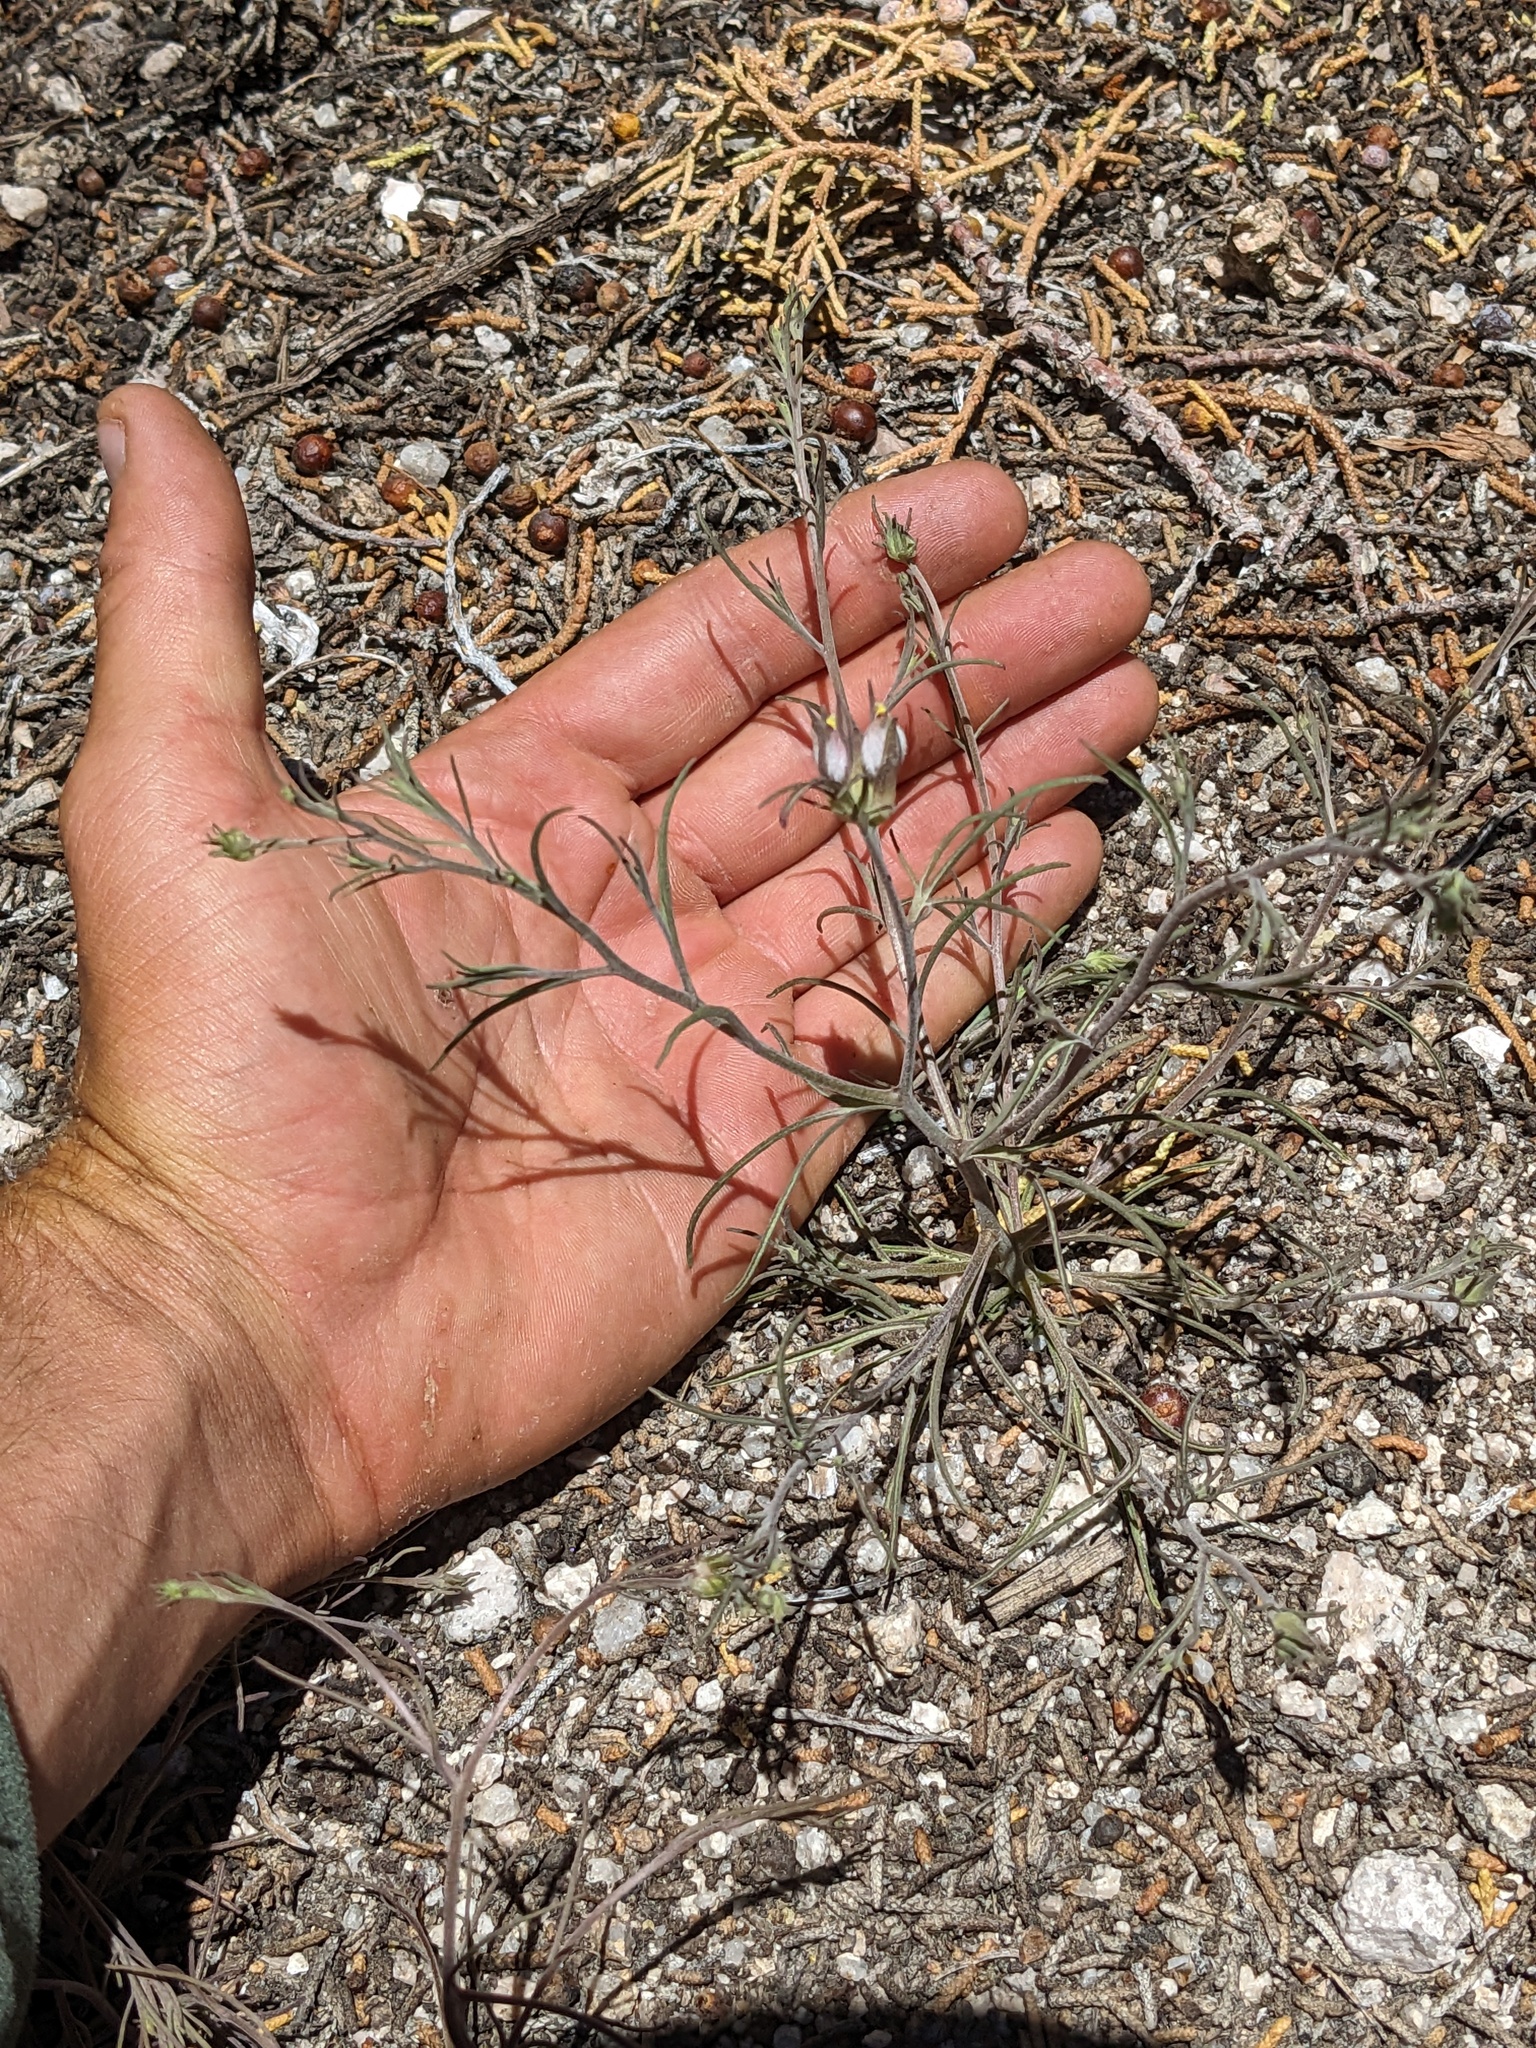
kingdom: Plantae
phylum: Tracheophyta
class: Magnoliopsida
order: Lamiales
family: Orobanchaceae
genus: Cordylanthus
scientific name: Cordylanthus eremicus
